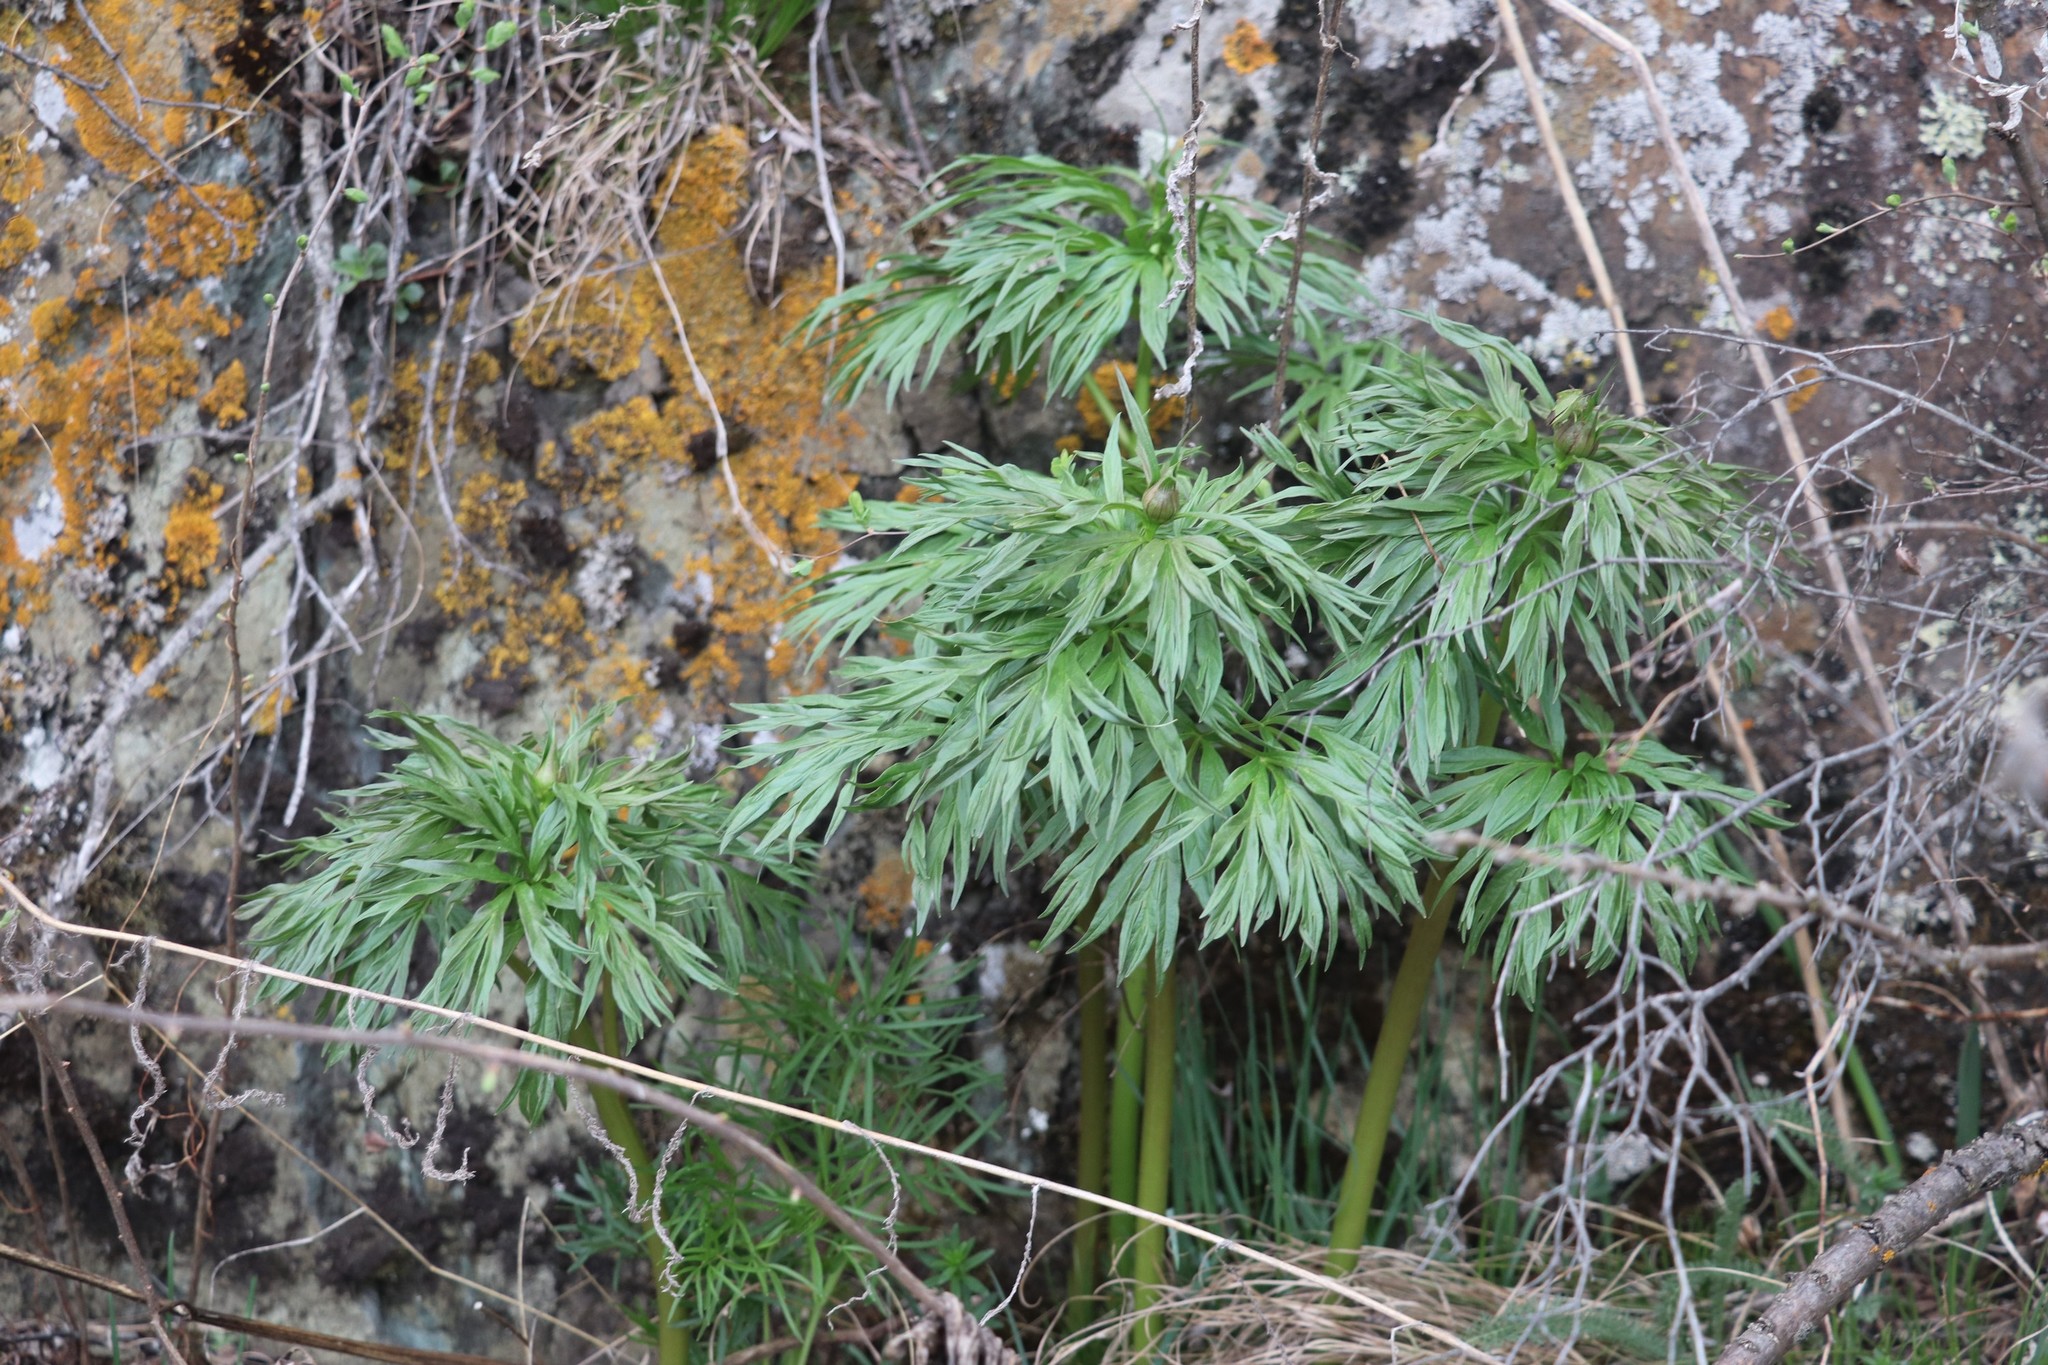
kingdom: Plantae
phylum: Tracheophyta
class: Magnoliopsida
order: Saxifragales
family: Paeoniaceae
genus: Paeonia
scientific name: Paeonia anomala
